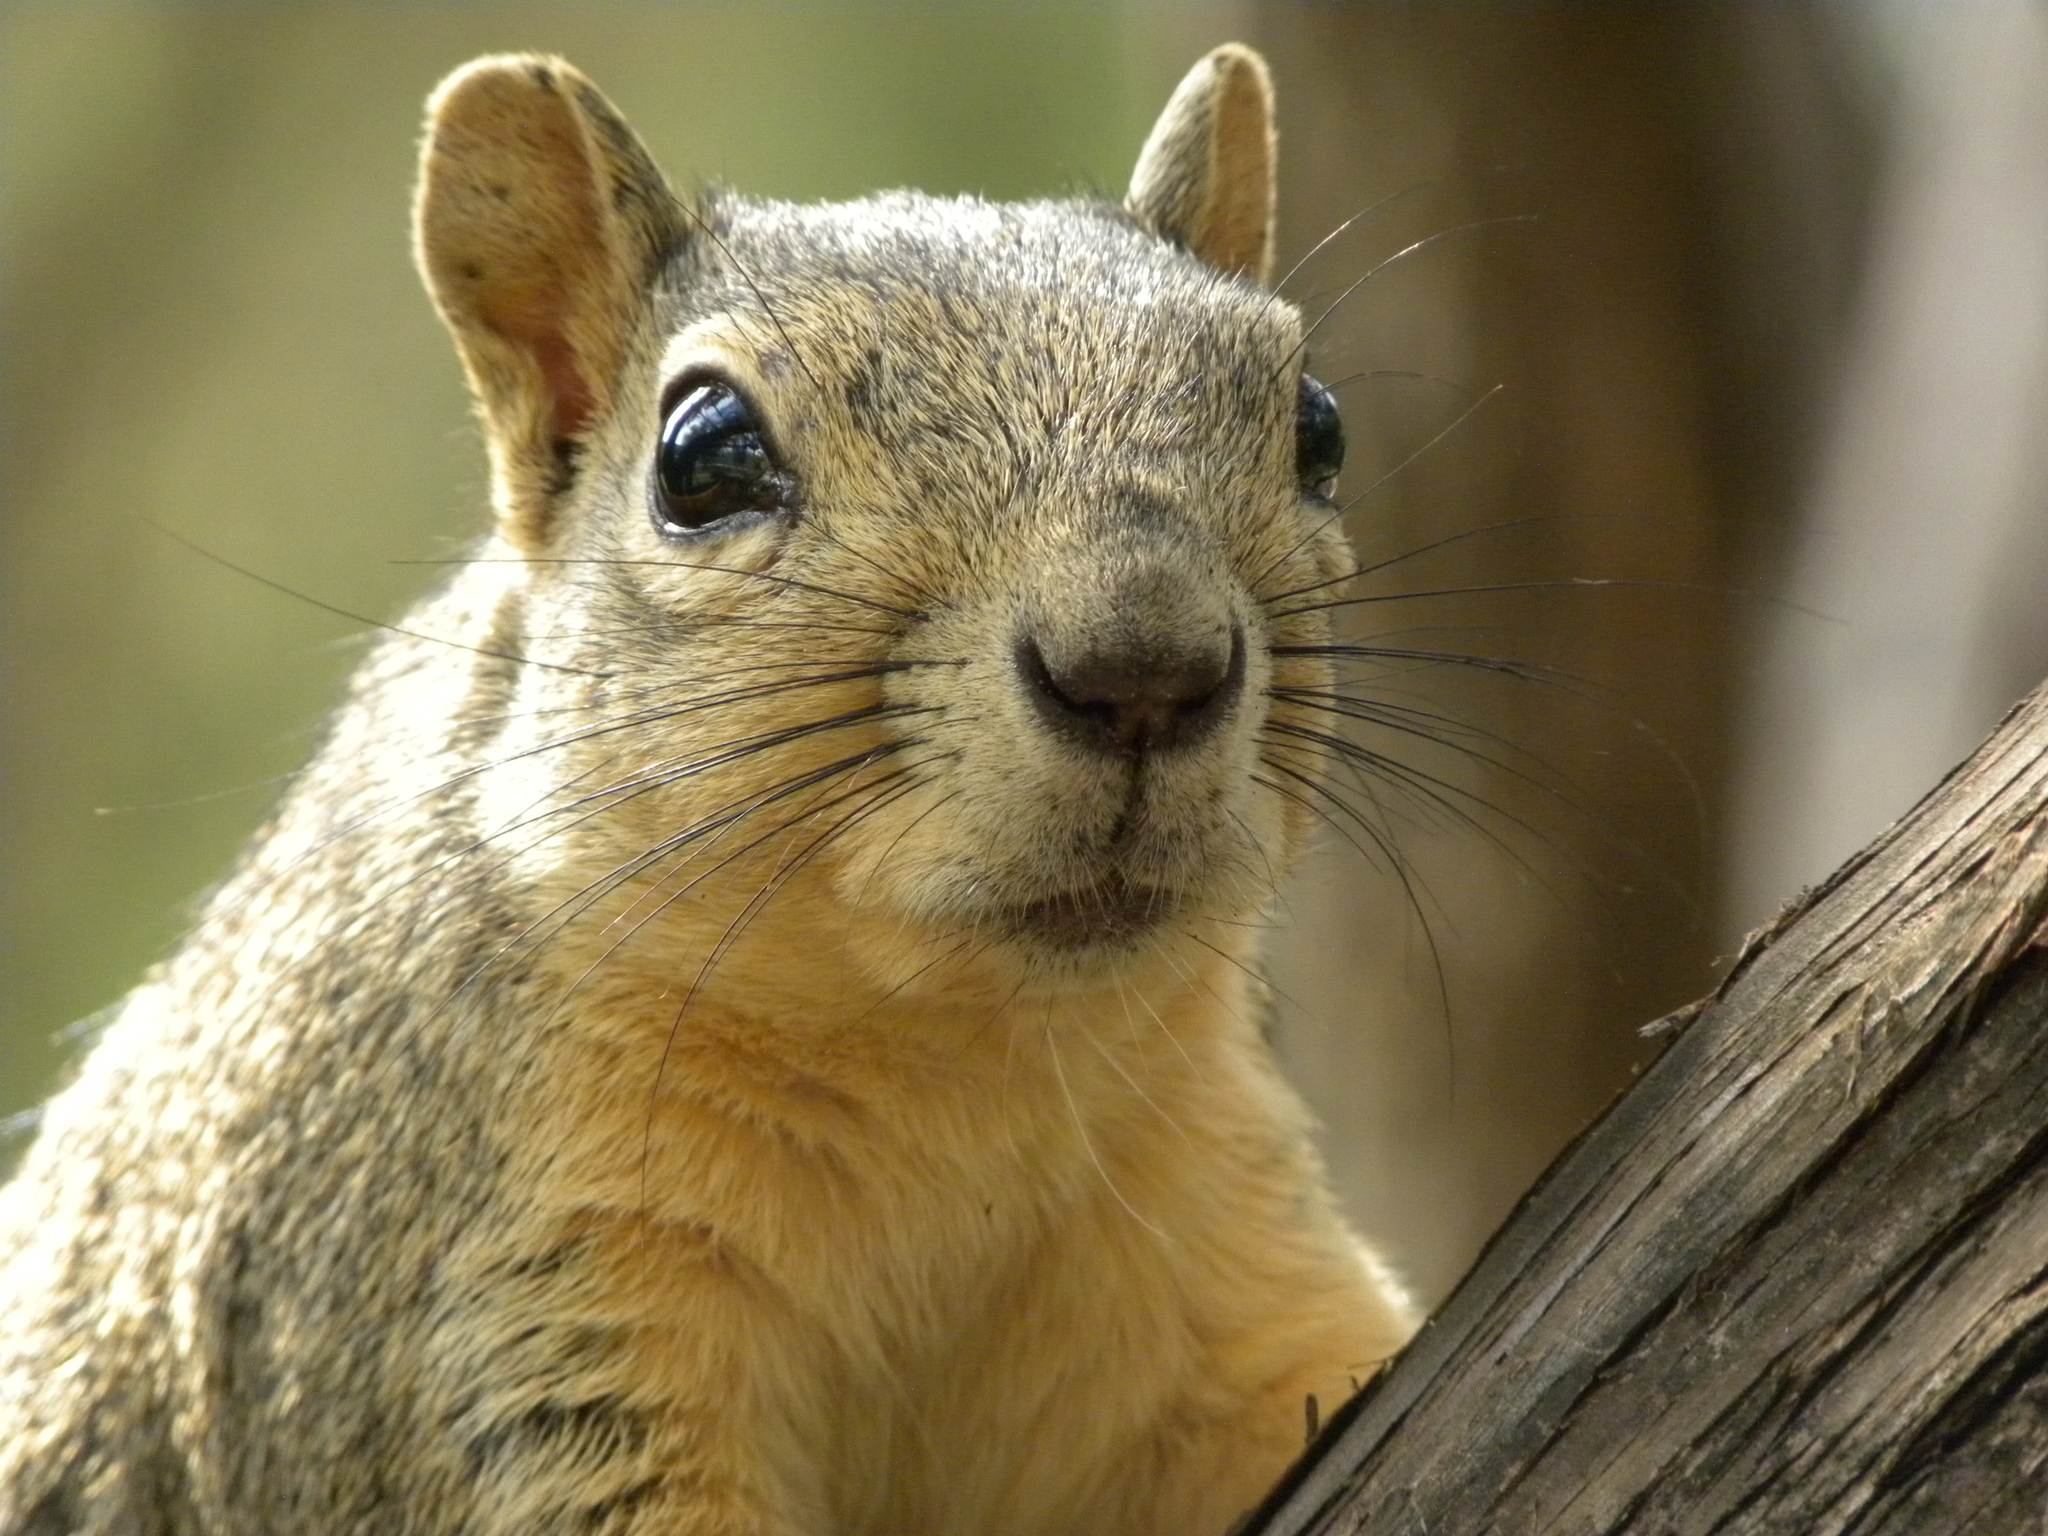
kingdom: Animalia
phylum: Chordata
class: Mammalia
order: Rodentia
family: Sciuridae
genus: Sciurus
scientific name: Sciurus niger
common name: Fox squirrel
